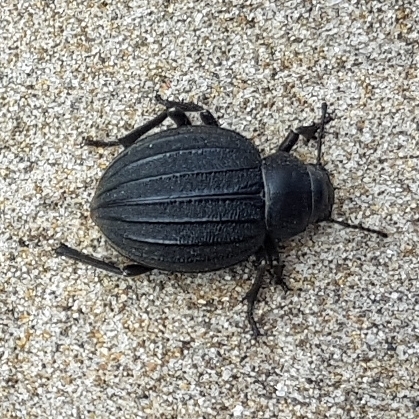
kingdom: Animalia
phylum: Arthropoda
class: Insecta
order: Coleoptera
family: Tenebrionidae
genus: Pimelia
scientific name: Pimelia muricata
